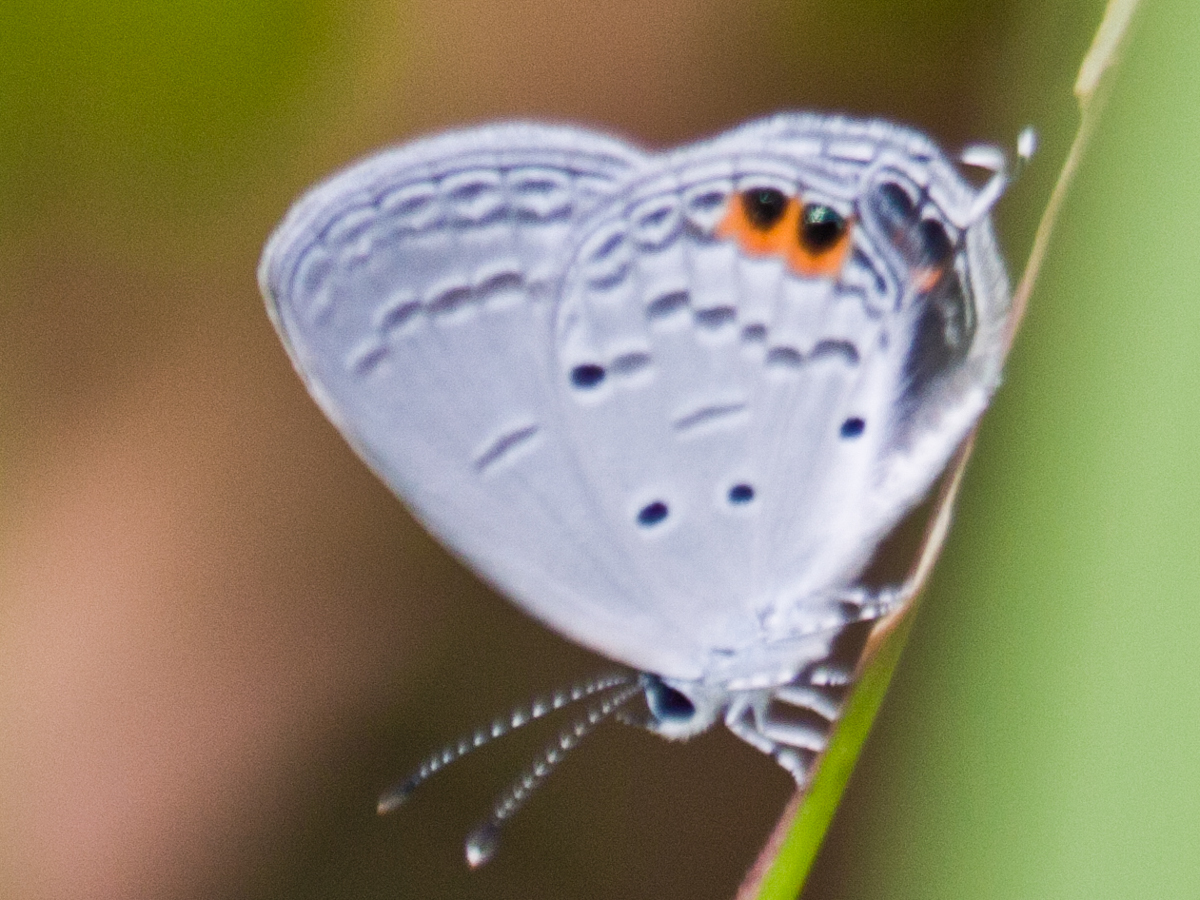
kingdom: Animalia
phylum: Arthropoda
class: Insecta
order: Lepidoptera
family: Lycaenidae
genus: Everes
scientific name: Everes lacturnus
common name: Orange-tipped pea-blue
